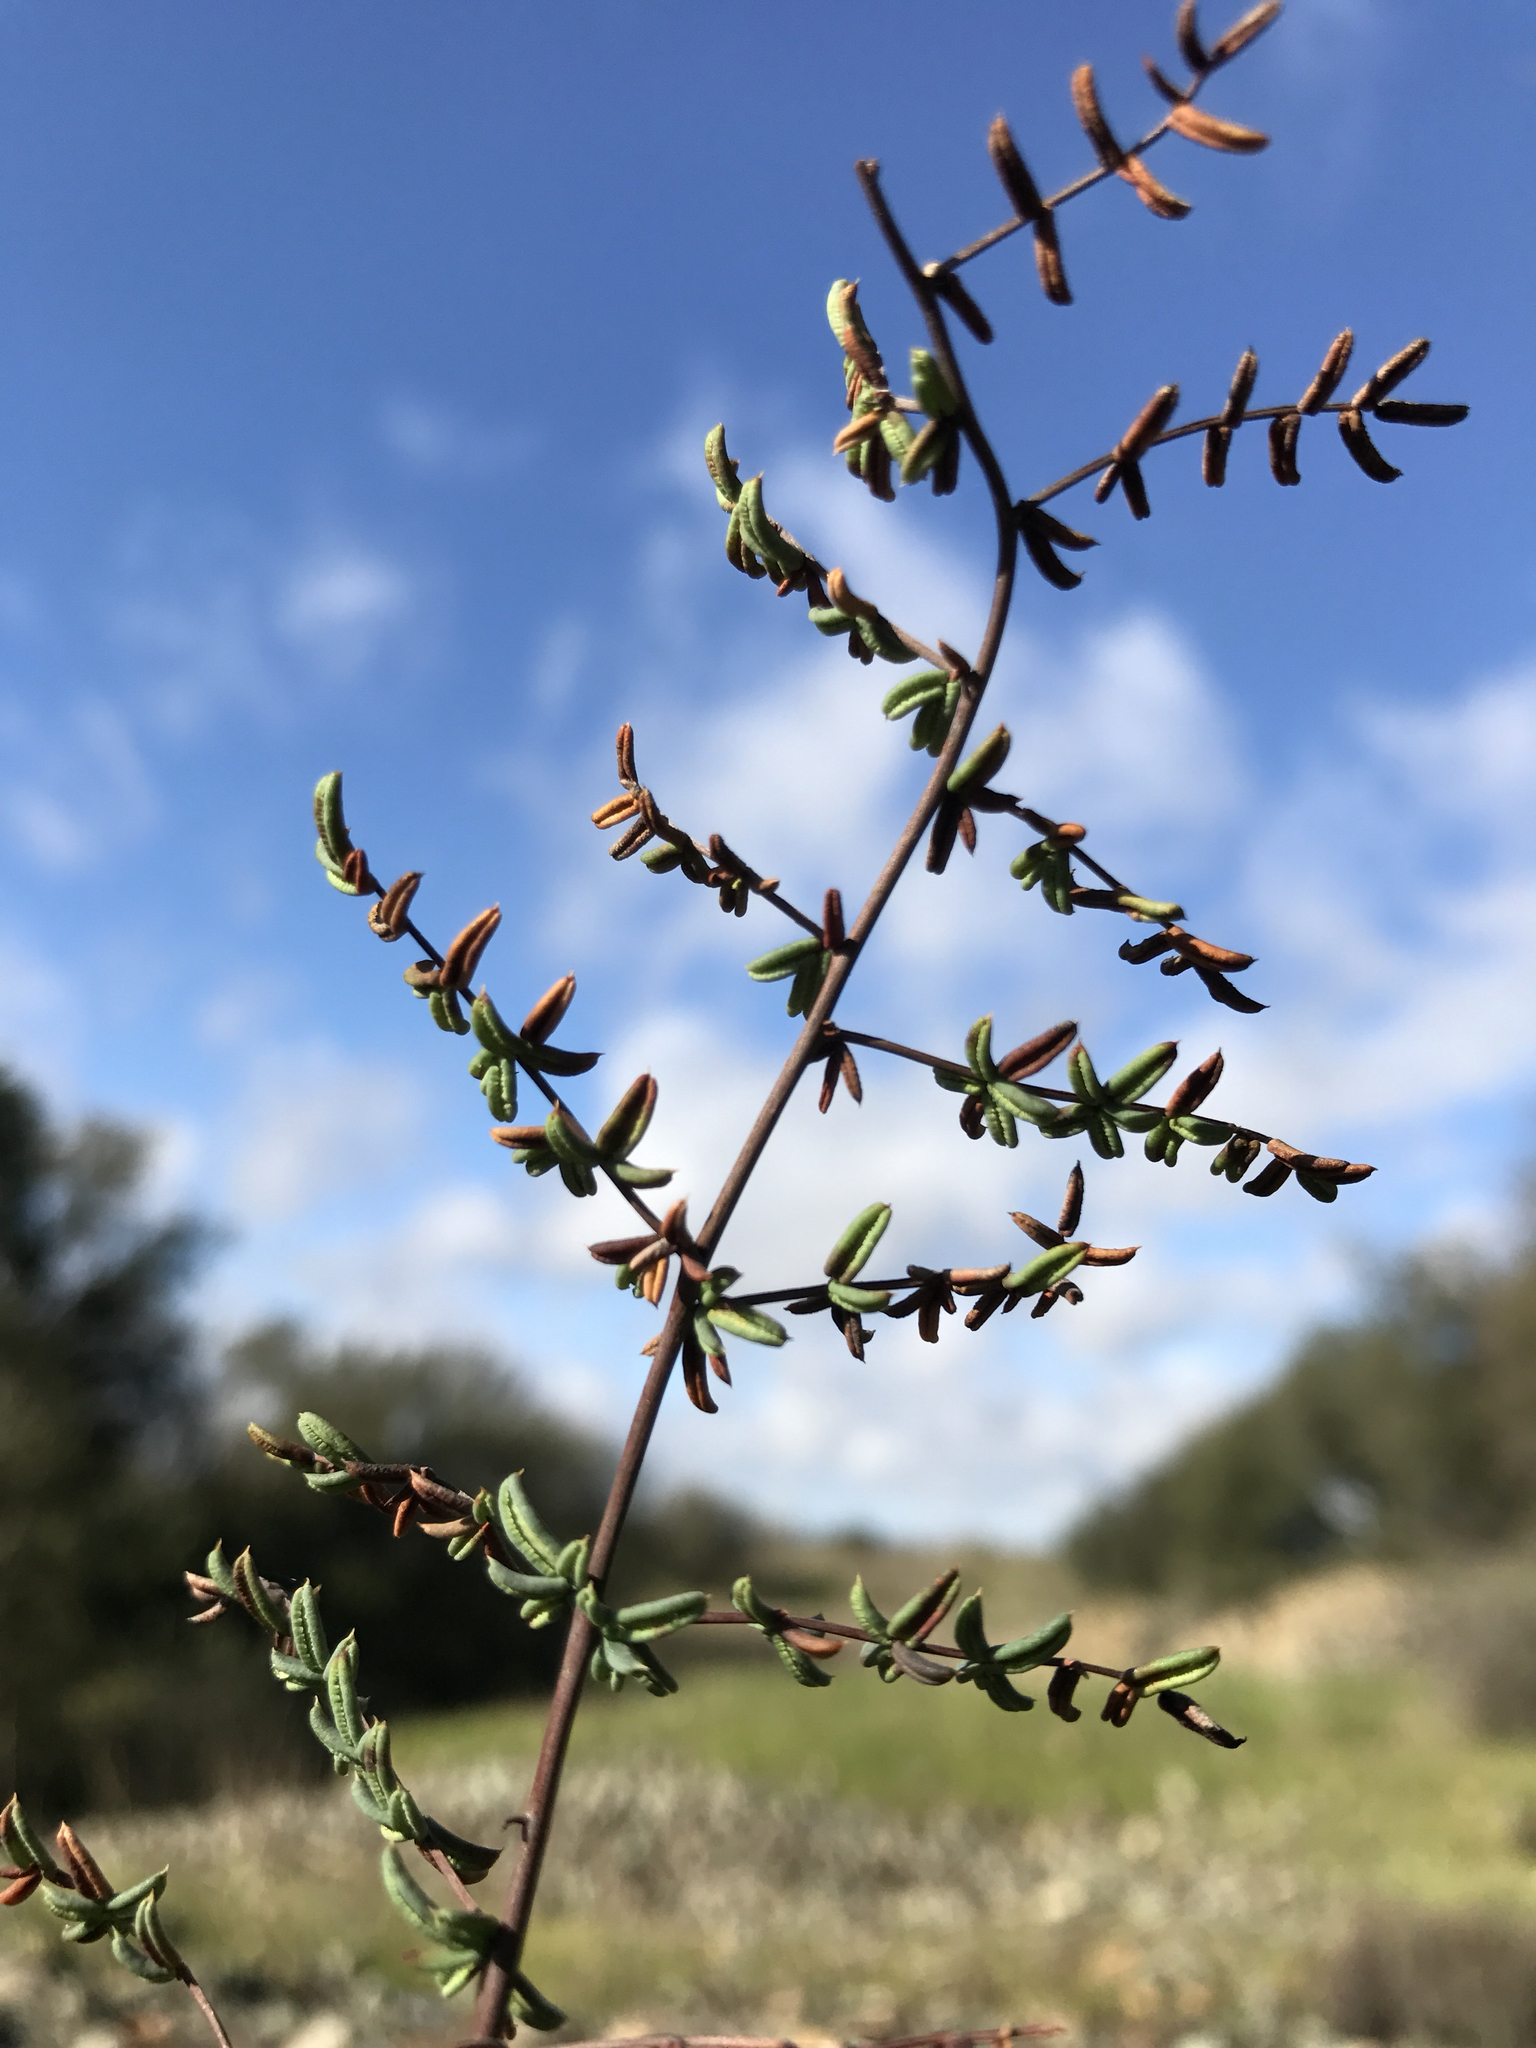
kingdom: Plantae
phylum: Tracheophyta
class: Polypodiopsida
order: Polypodiales
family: Pteridaceae
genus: Pellaea
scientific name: Pellaea mucronata
